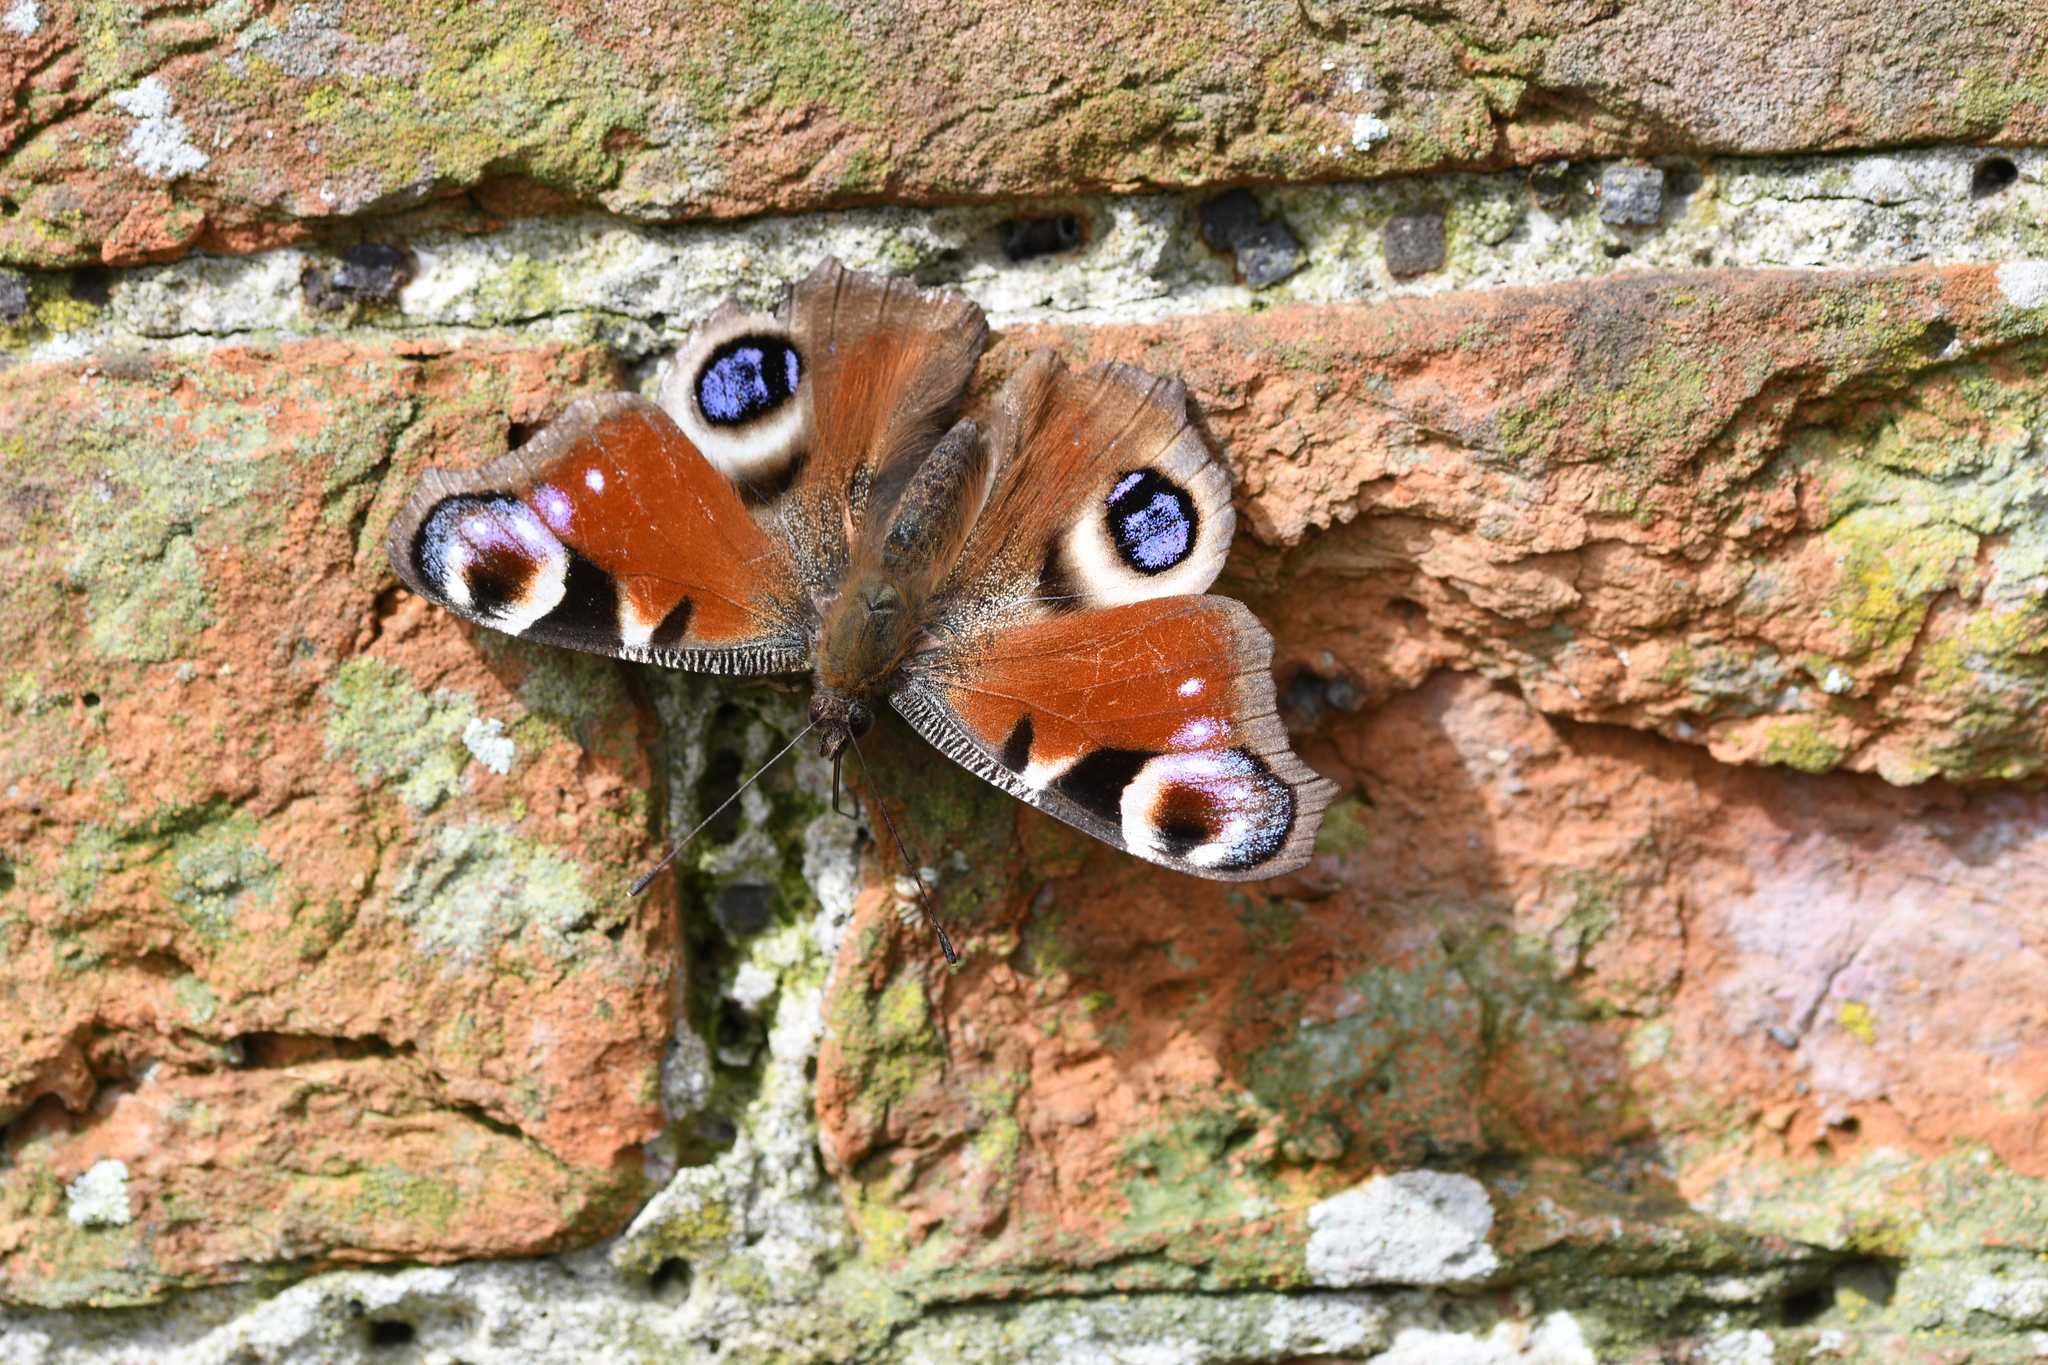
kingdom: Animalia
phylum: Arthropoda
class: Insecta
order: Lepidoptera
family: Nymphalidae
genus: Aglais
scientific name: Aglais io
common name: Peacock
